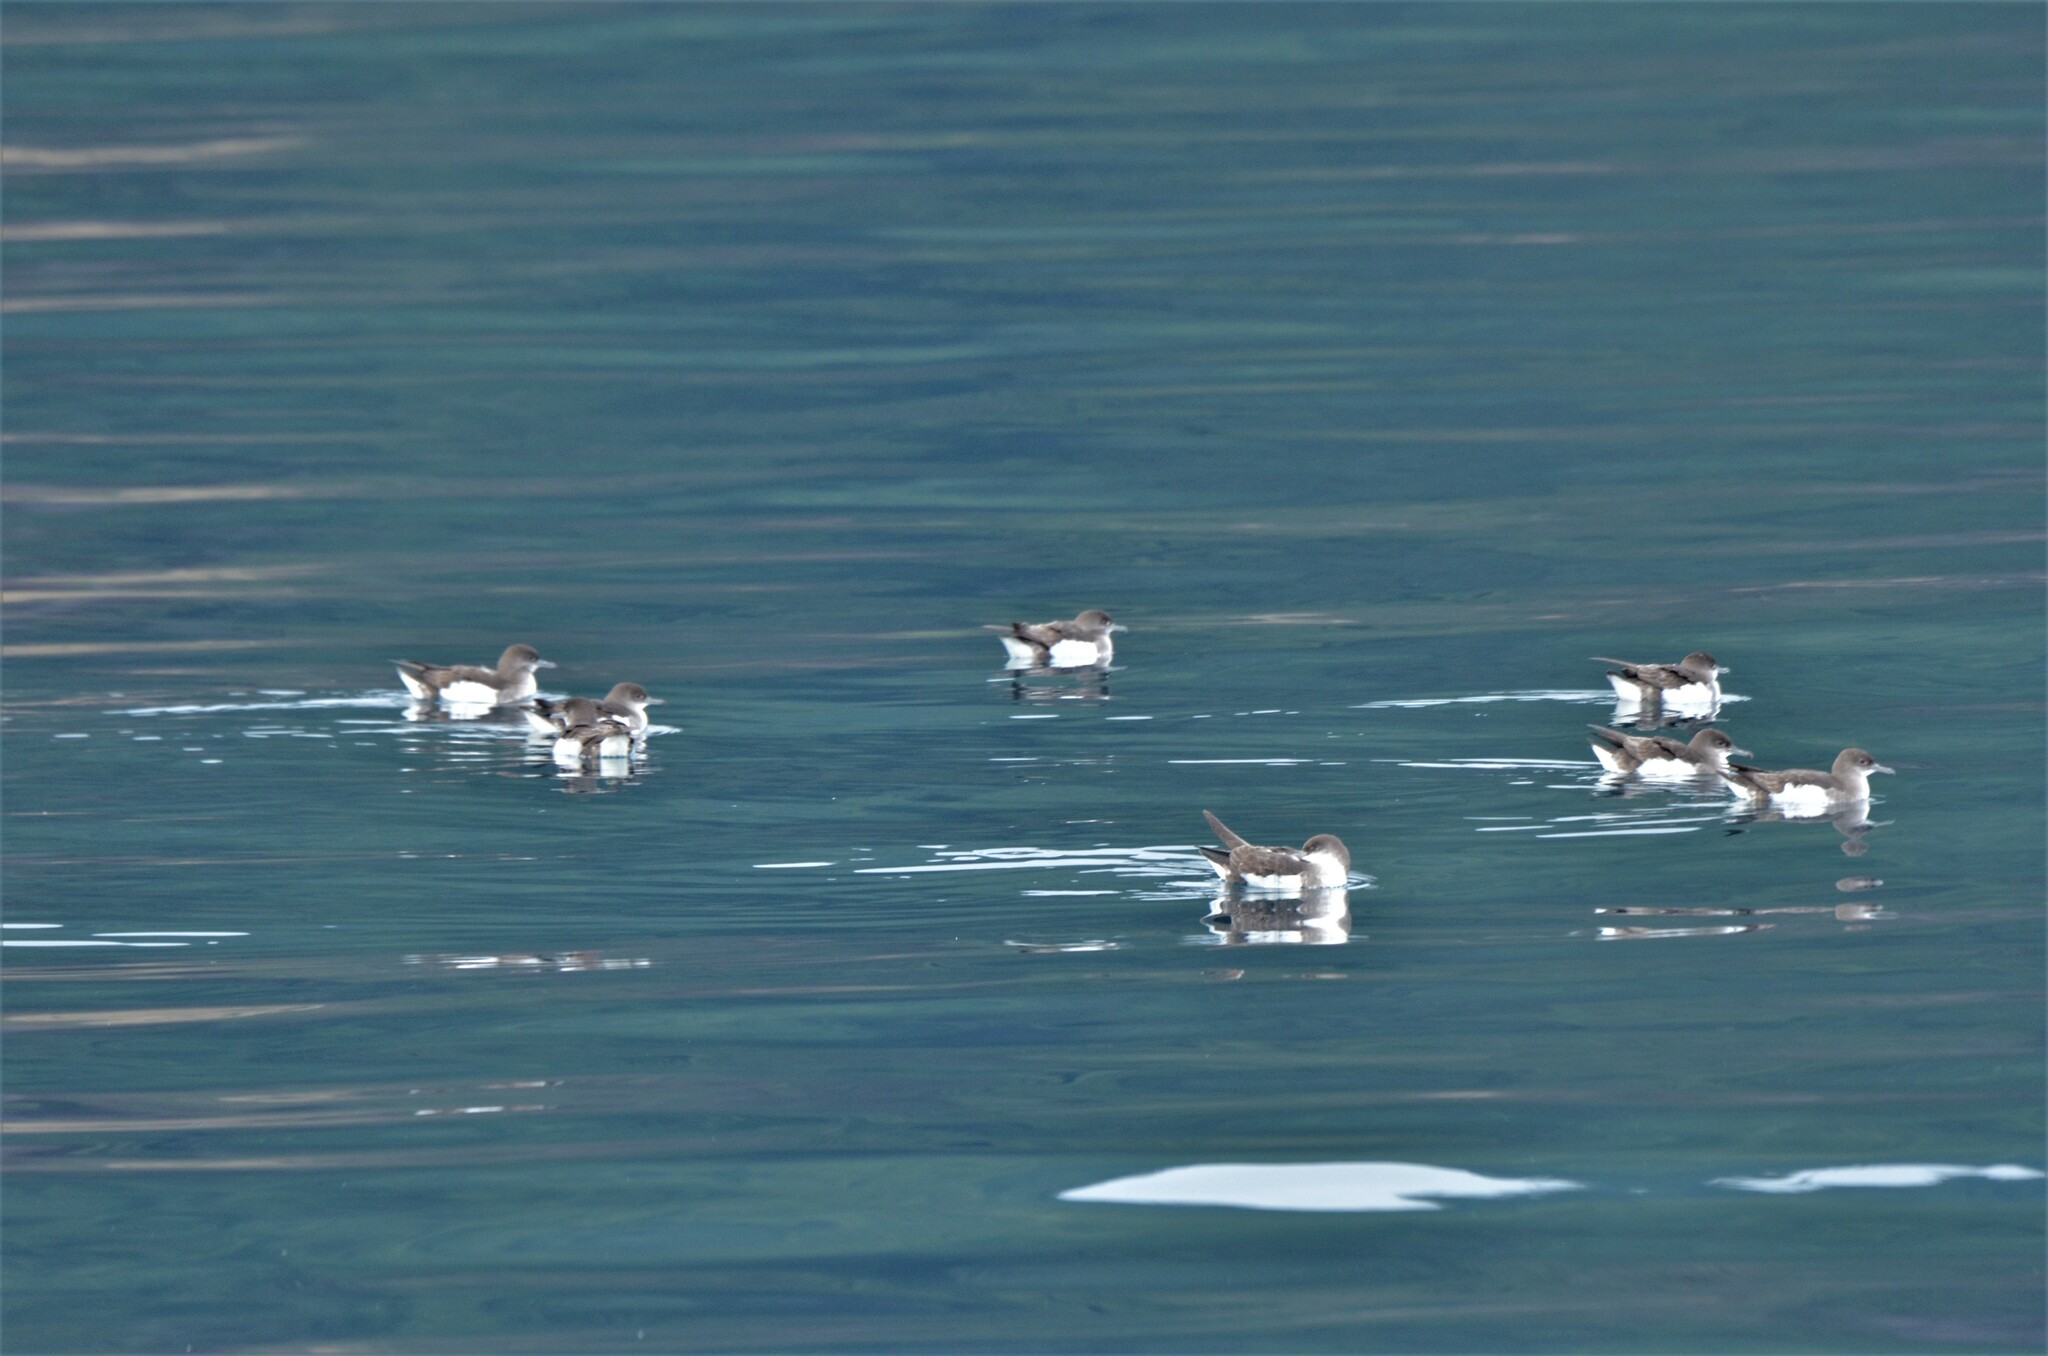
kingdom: Animalia
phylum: Chordata
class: Aves
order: Procellariiformes
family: Procellariidae
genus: Puffinus
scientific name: Puffinus gavia
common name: Fluttering shearwater
